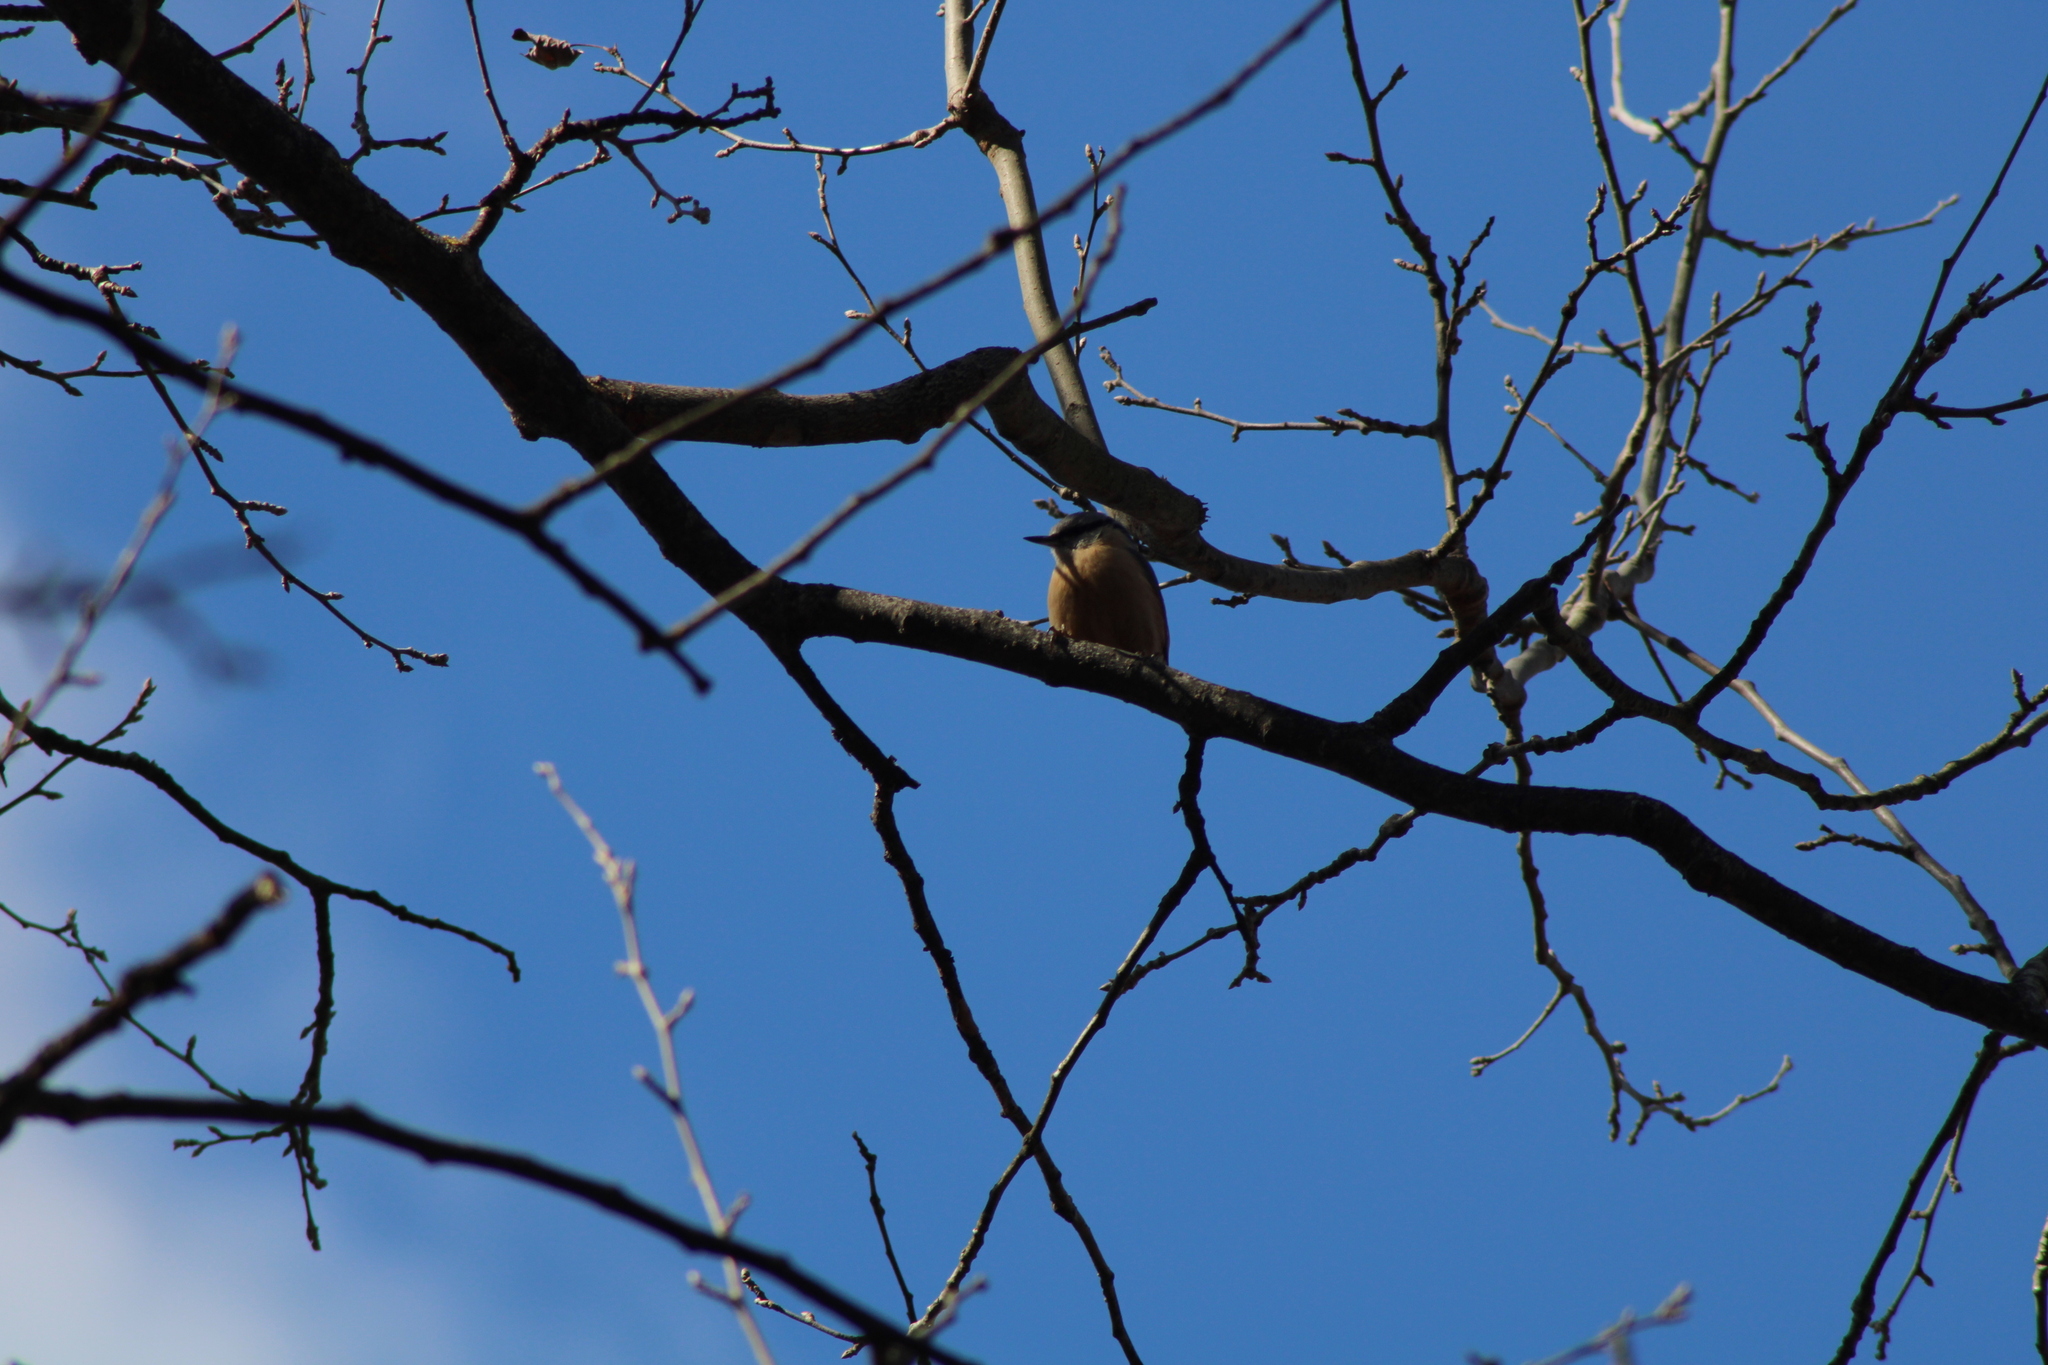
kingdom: Animalia
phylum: Chordata
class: Aves
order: Passeriformes
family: Sittidae
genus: Sitta
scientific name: Sitta europaea
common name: Eurasian nuthatch
